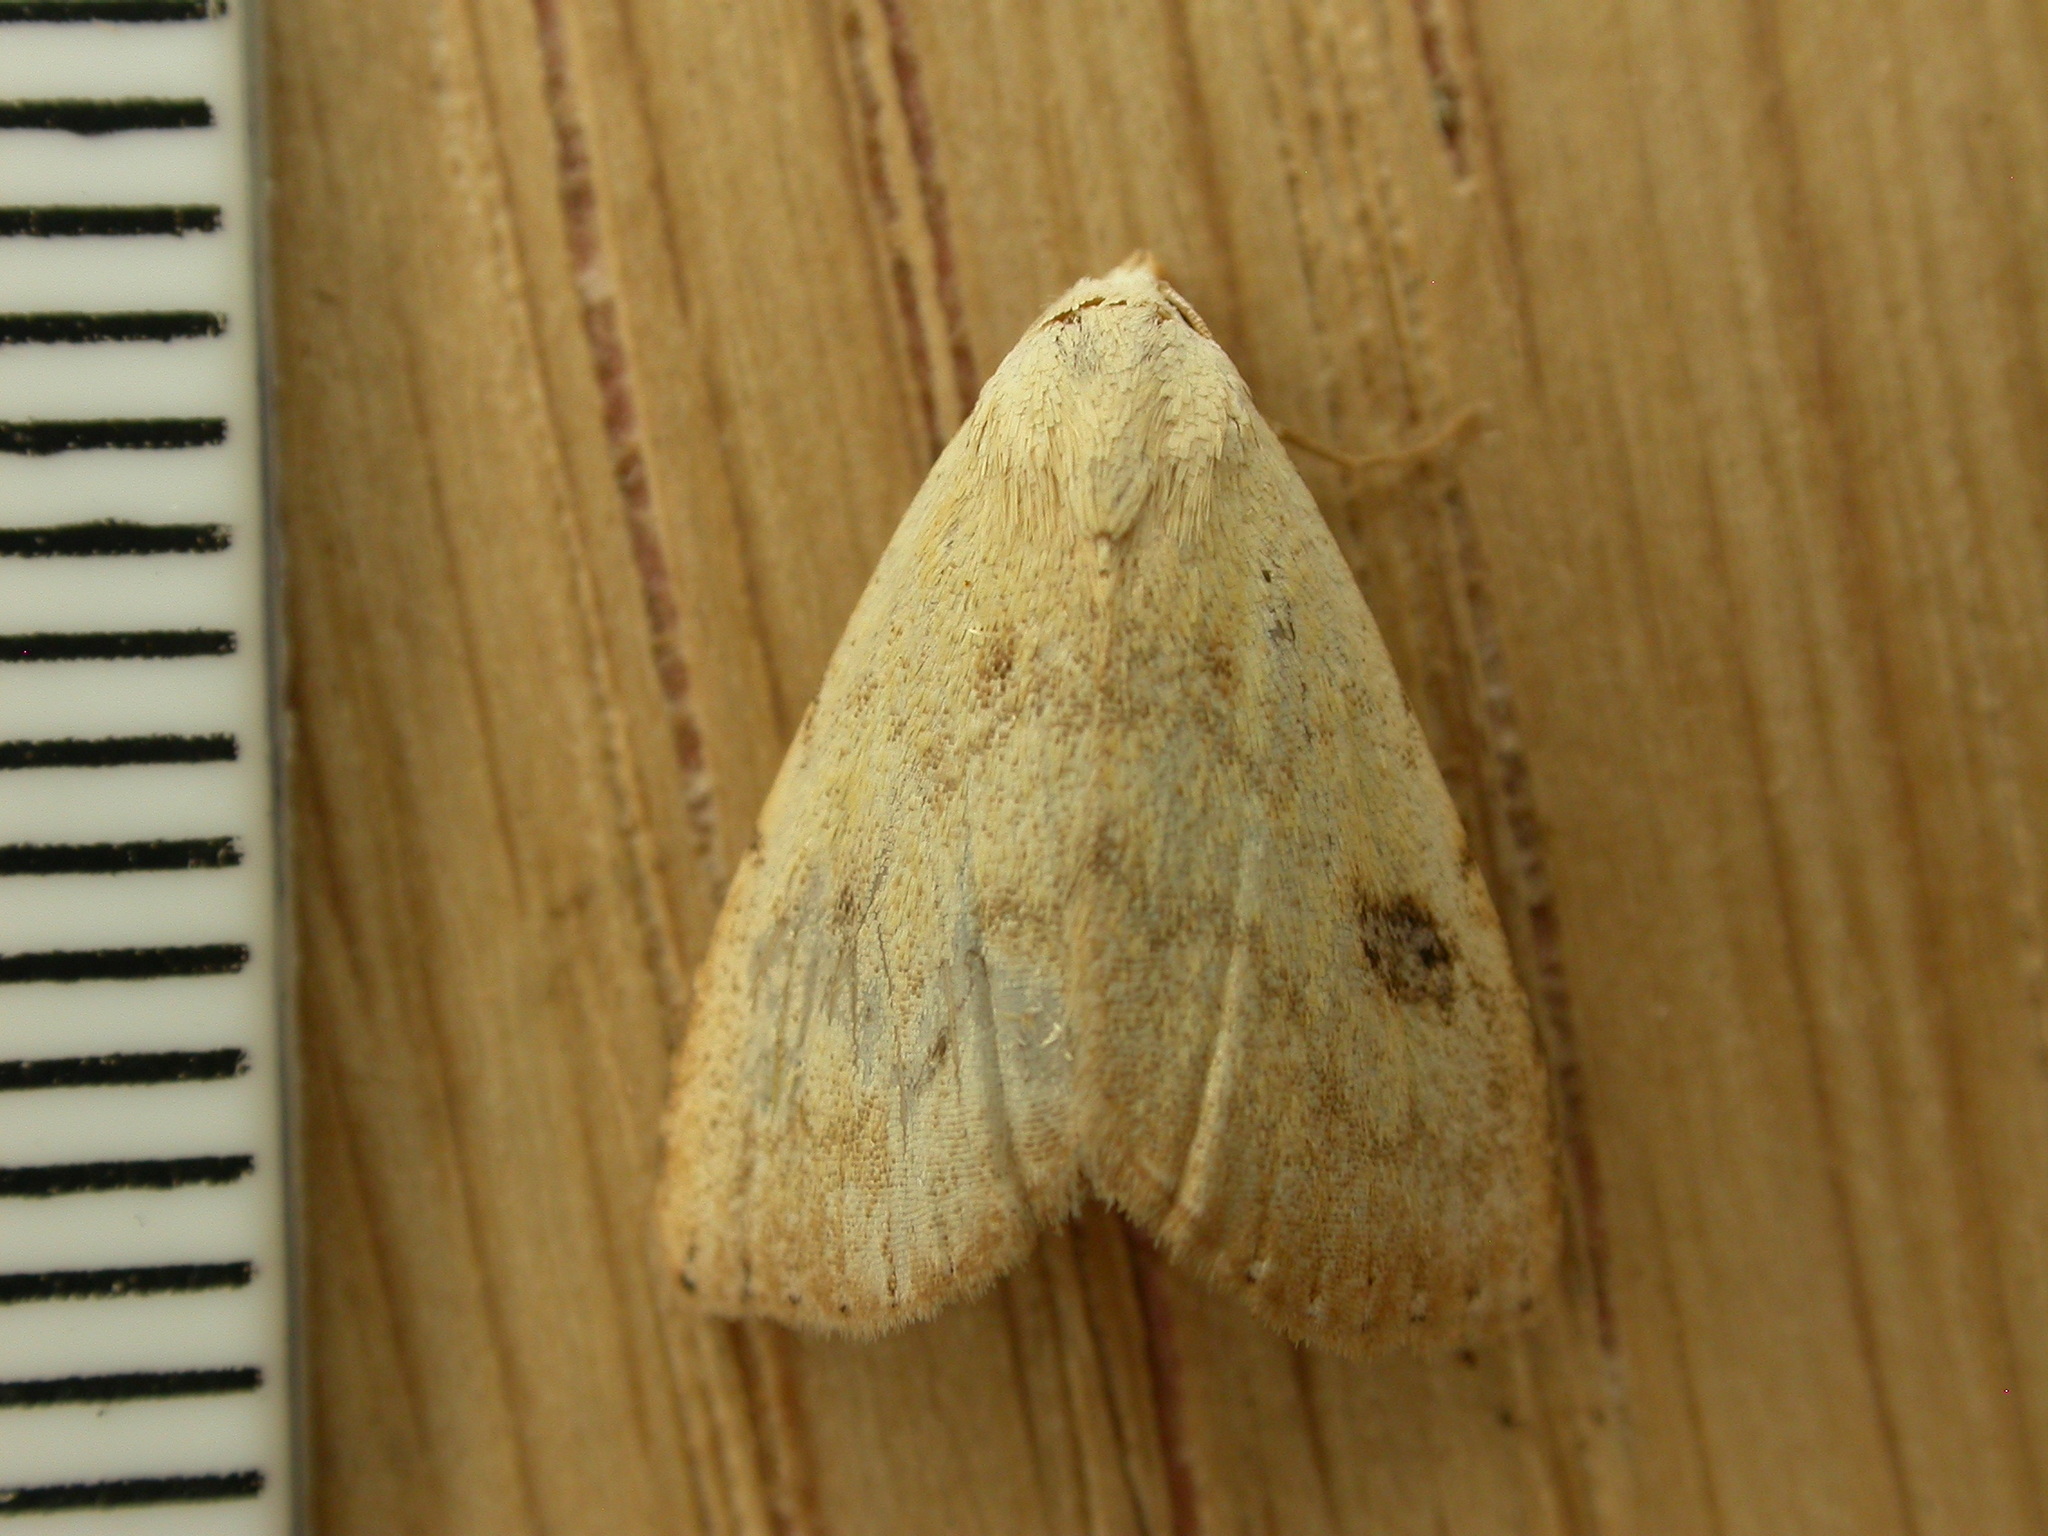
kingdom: Animalia
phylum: Arthropoda
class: Insecta
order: Lepidoptera
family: Erebidae
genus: Rivula
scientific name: Rivula sericealis
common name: Straw dot
